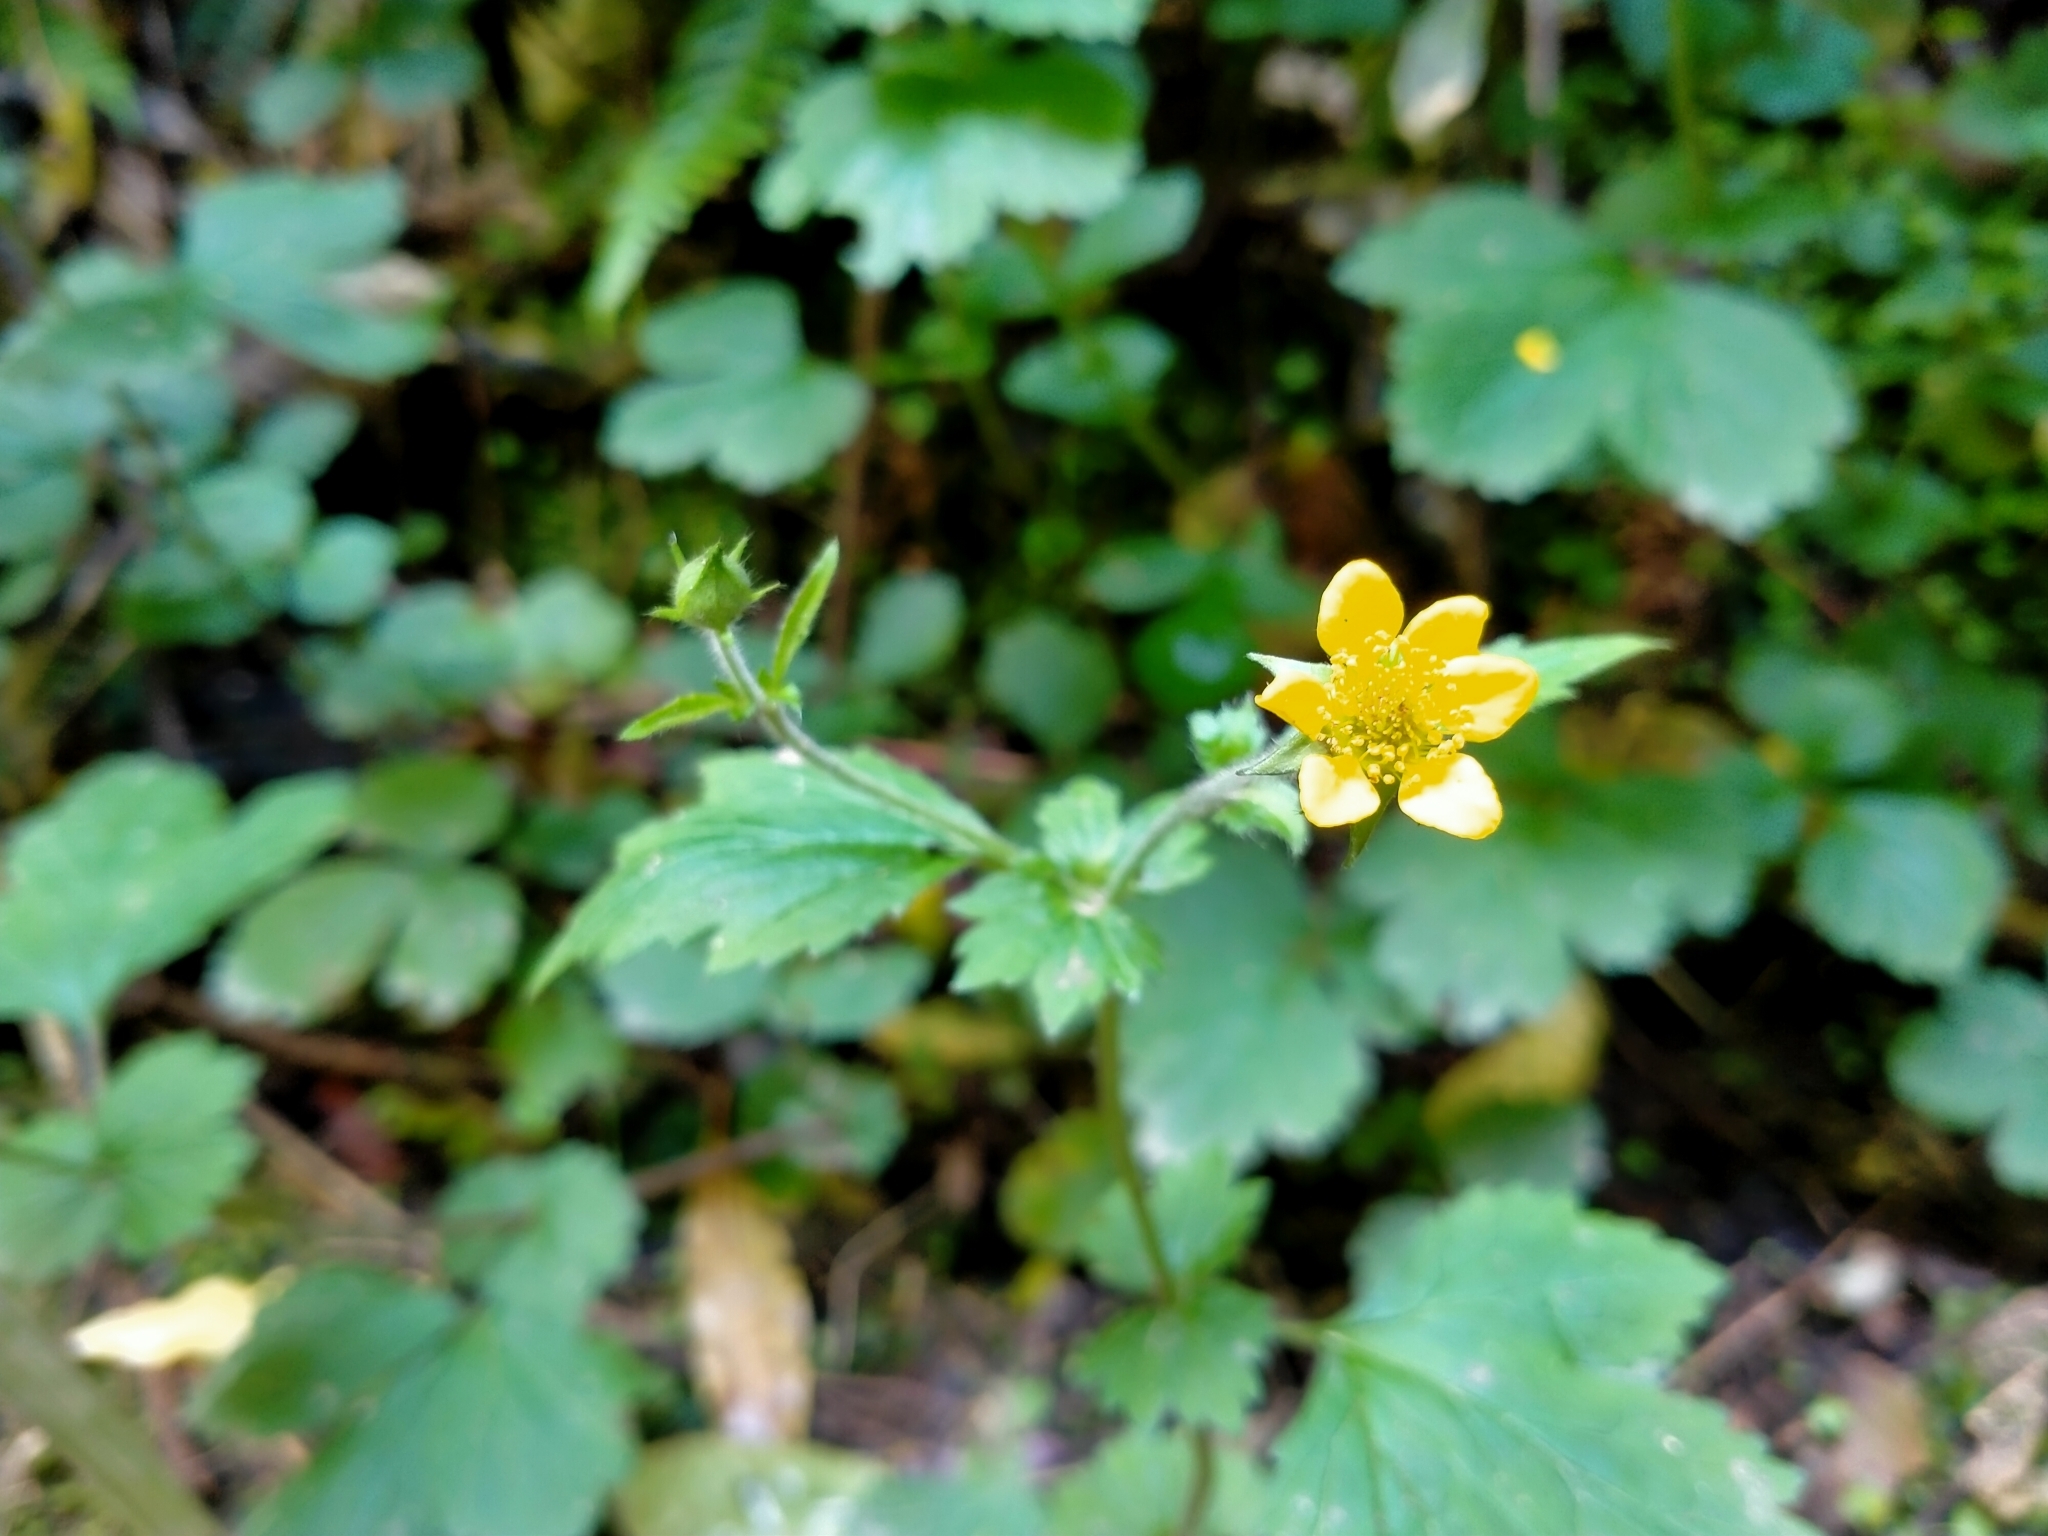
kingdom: Plantae
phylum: Tracheophyta
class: Magnoliopsida
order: Rosales
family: Rosaceae
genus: Geum
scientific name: Geum urbanum
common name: Wood avens
